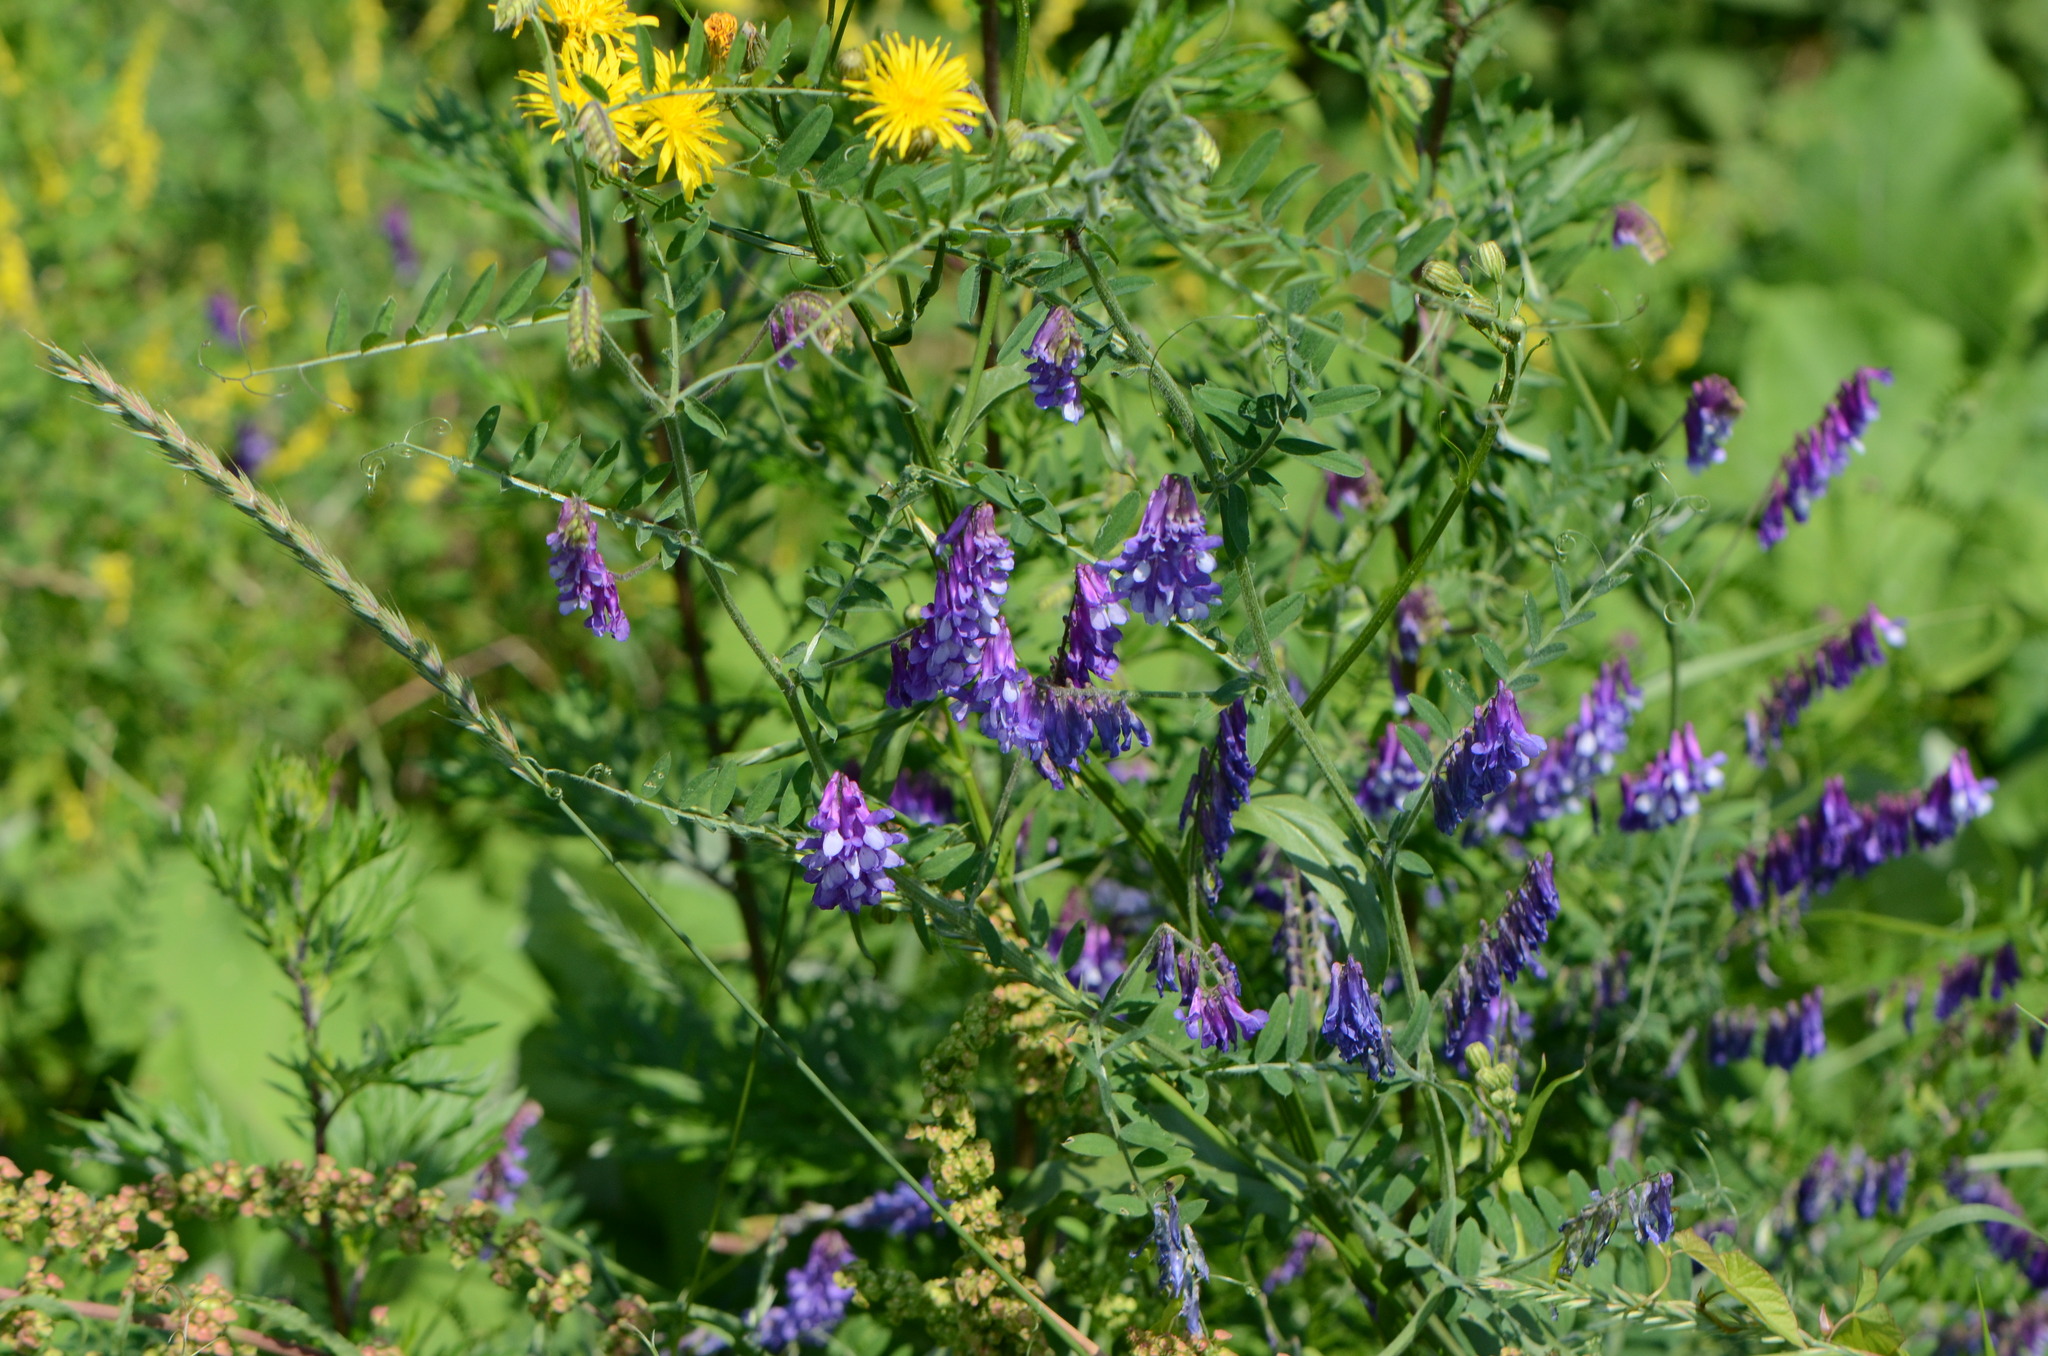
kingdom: Plantae
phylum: Tracheophyta
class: Magnoliopsida
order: Fabales
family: Fabaceae
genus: Vicia
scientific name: Vicia villosa
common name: Fodder vetch
